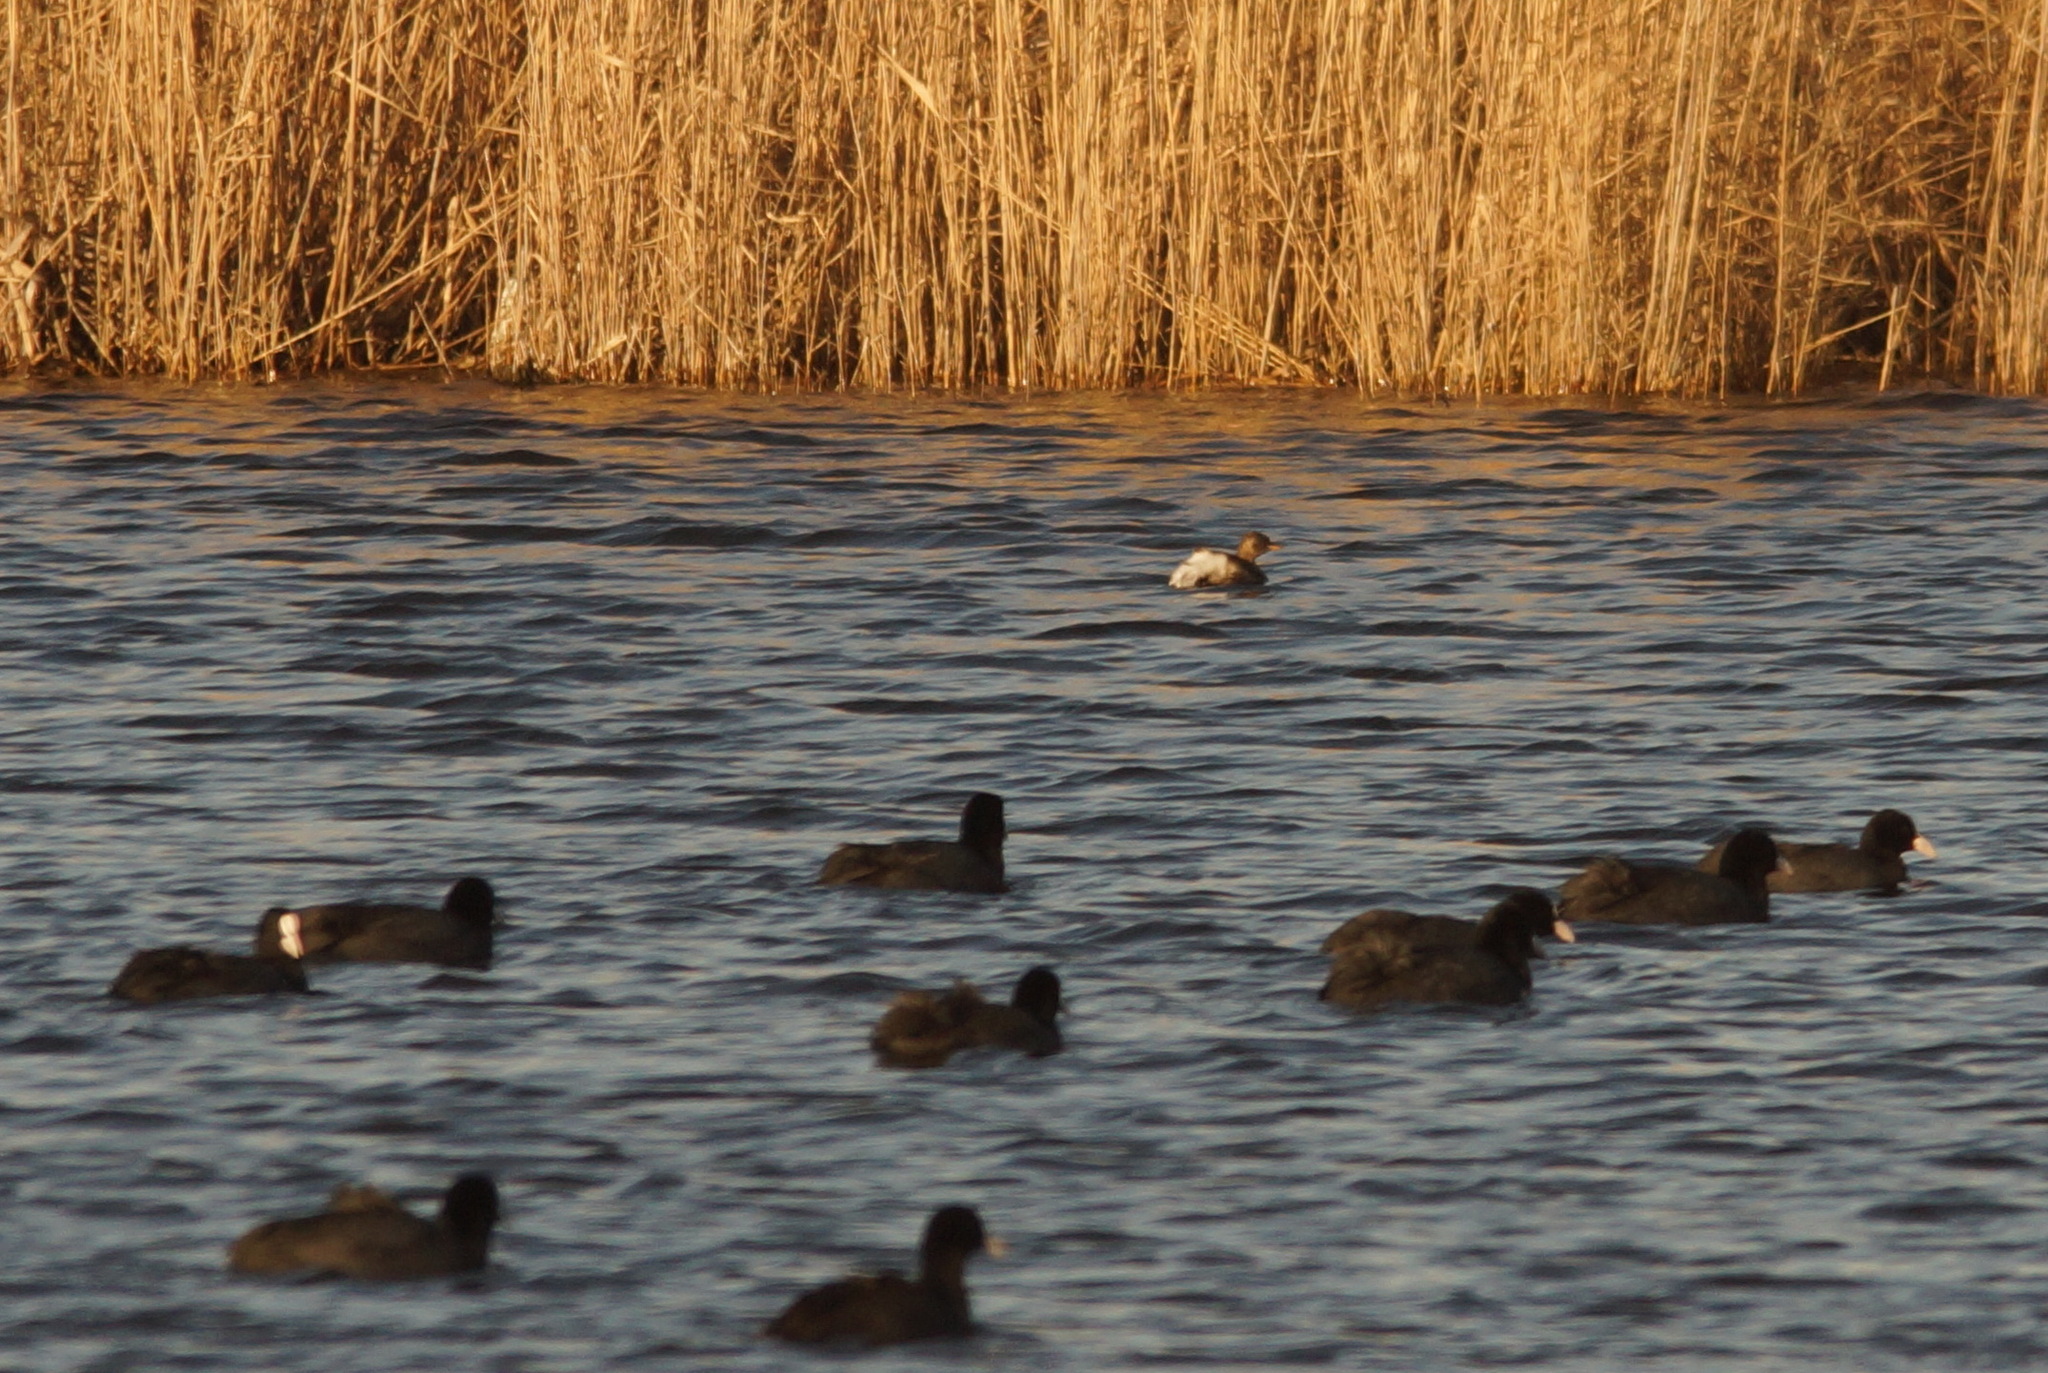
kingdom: Animalia
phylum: Chordata
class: Aves
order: Podicipediformes
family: Podicipedidae
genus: Tachybaptus
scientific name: Tachybaptus ruficollis
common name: Little grebe
